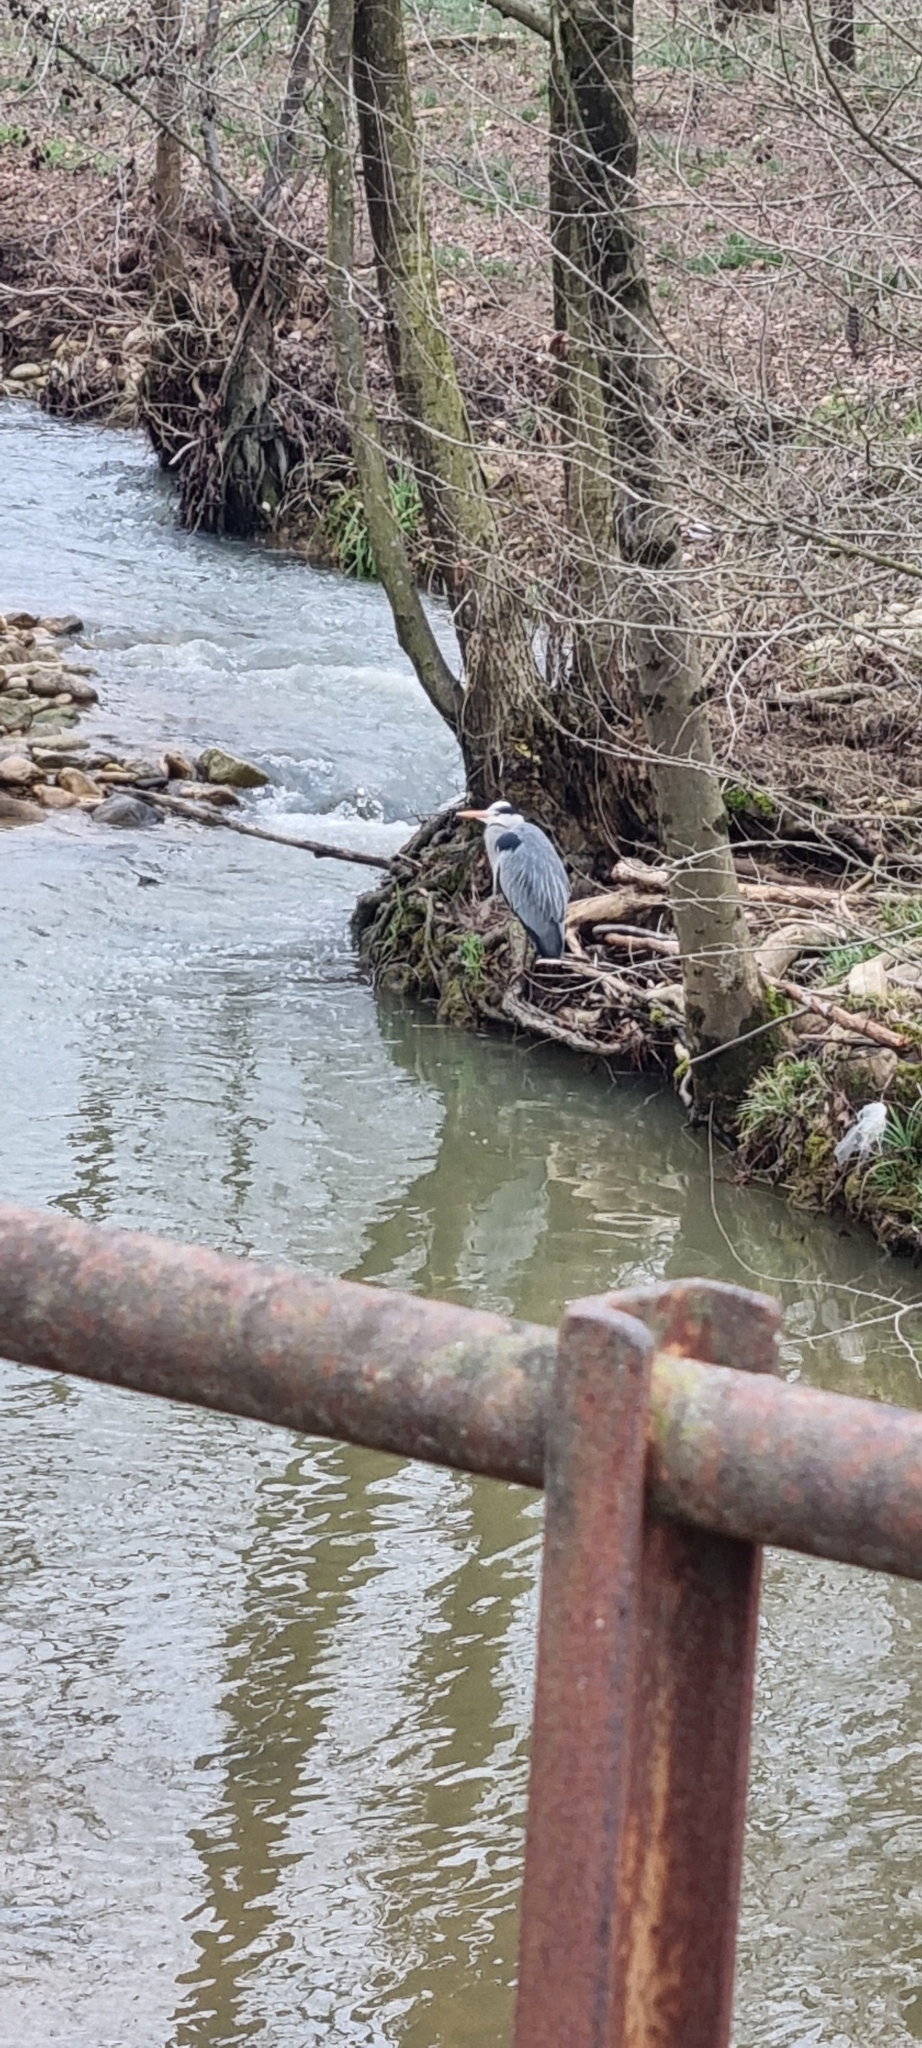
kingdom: Animalia
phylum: Chordata
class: Aves
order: Pelecaniformes
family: Ardeidae
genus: Ardea
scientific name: Ardea cinerea
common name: Grey heron
